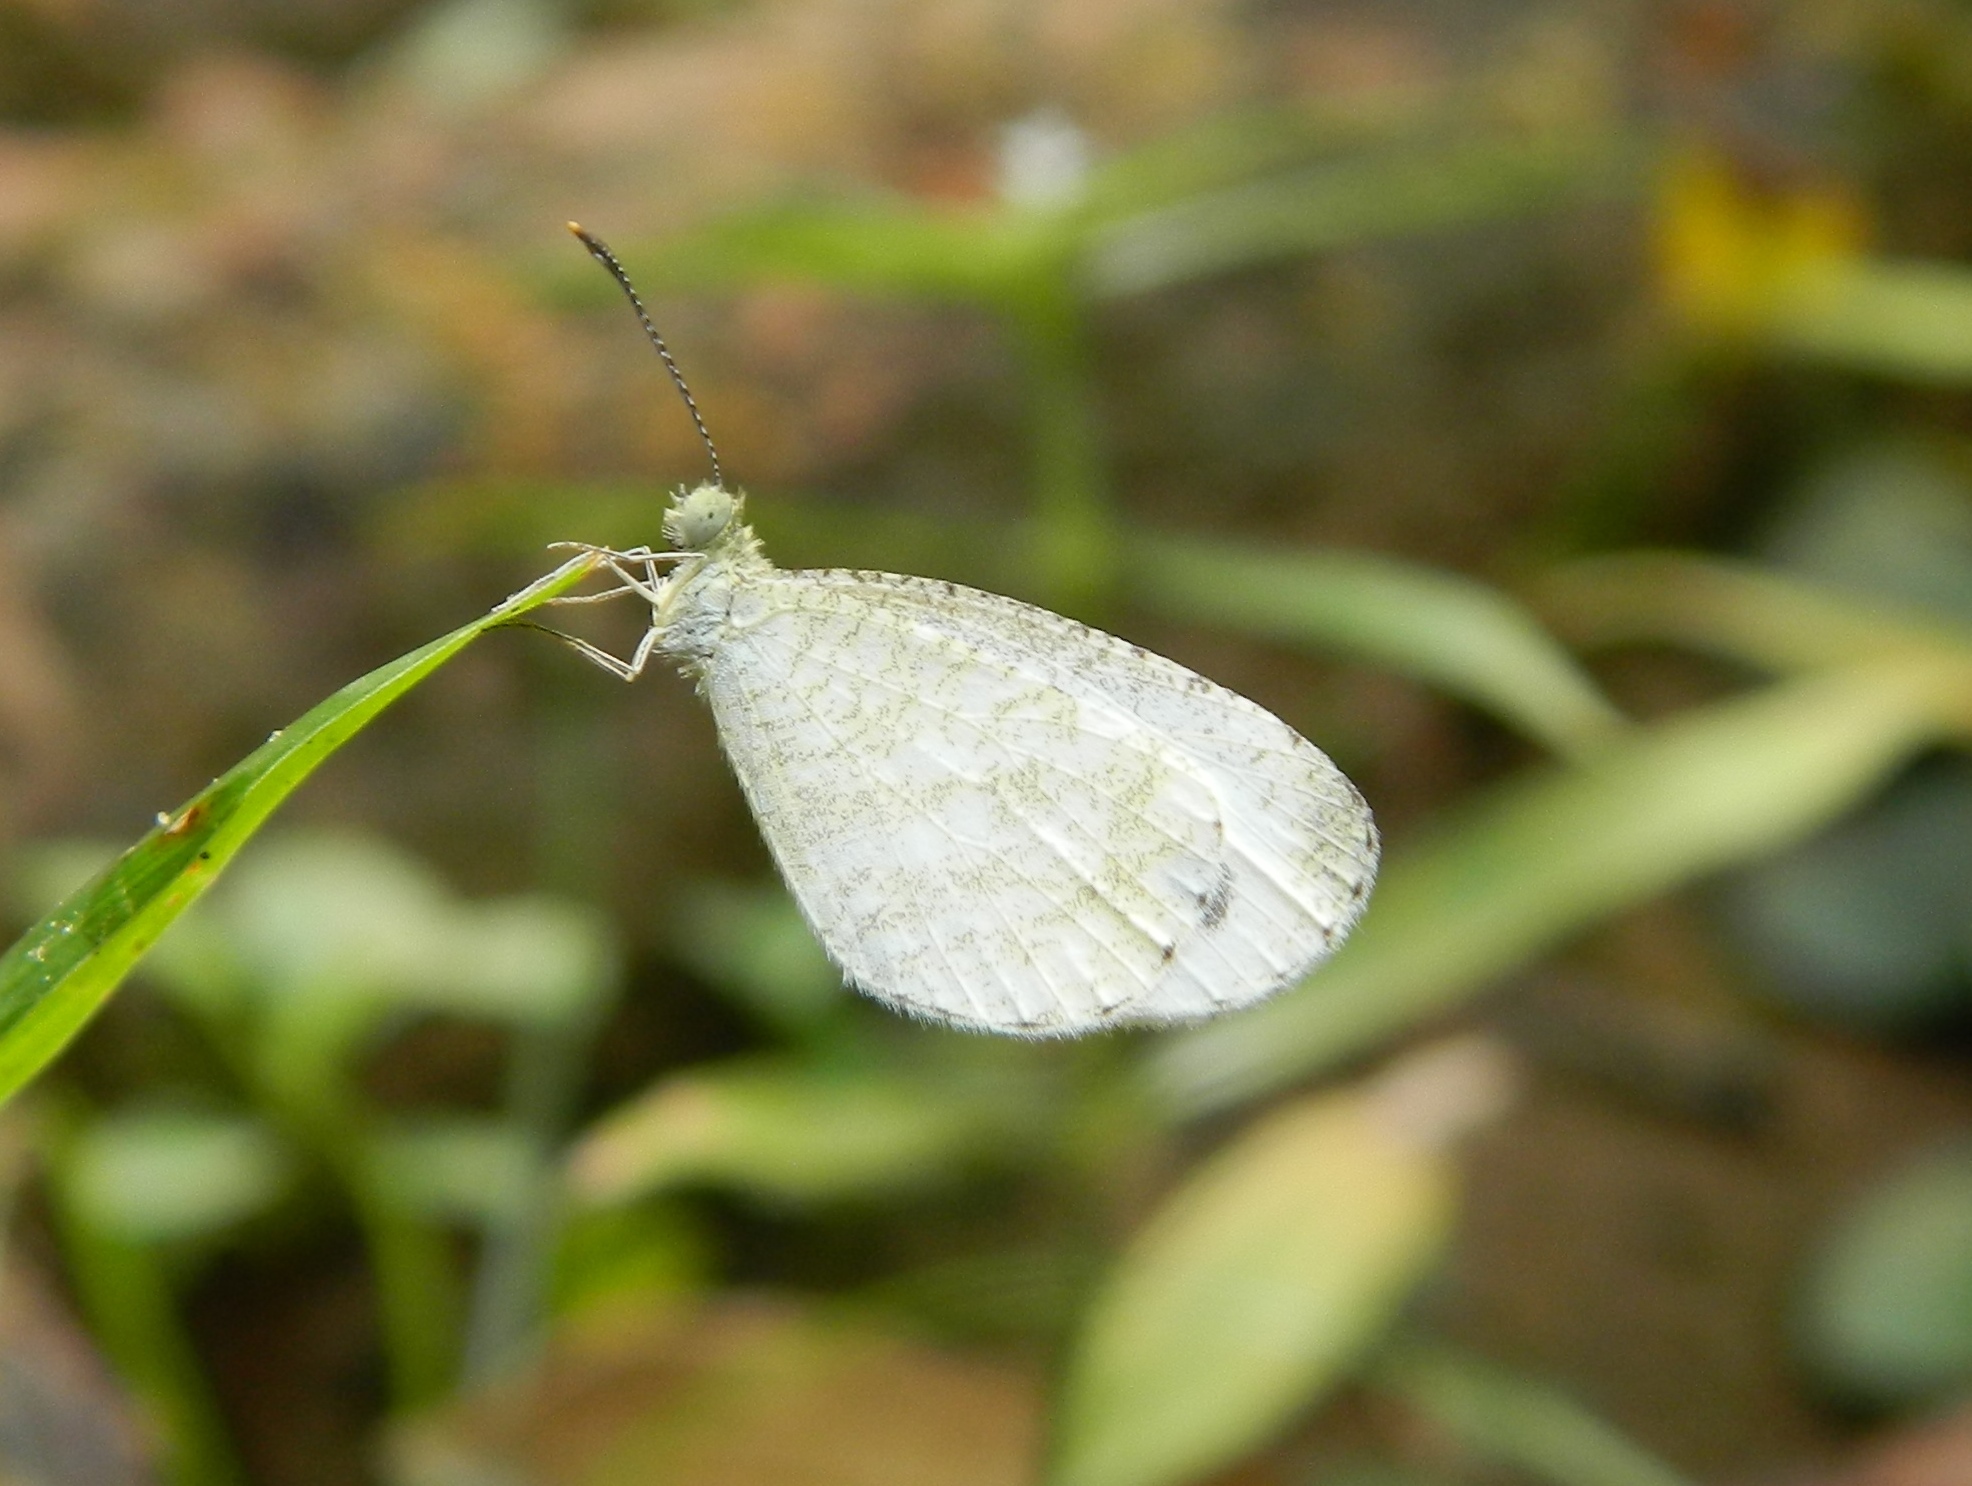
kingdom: Animalia
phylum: Arthropoda
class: Insecta
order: Lepidoptera
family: Pieridae
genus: Leptosia
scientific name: Leptosia nina
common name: Psyche
